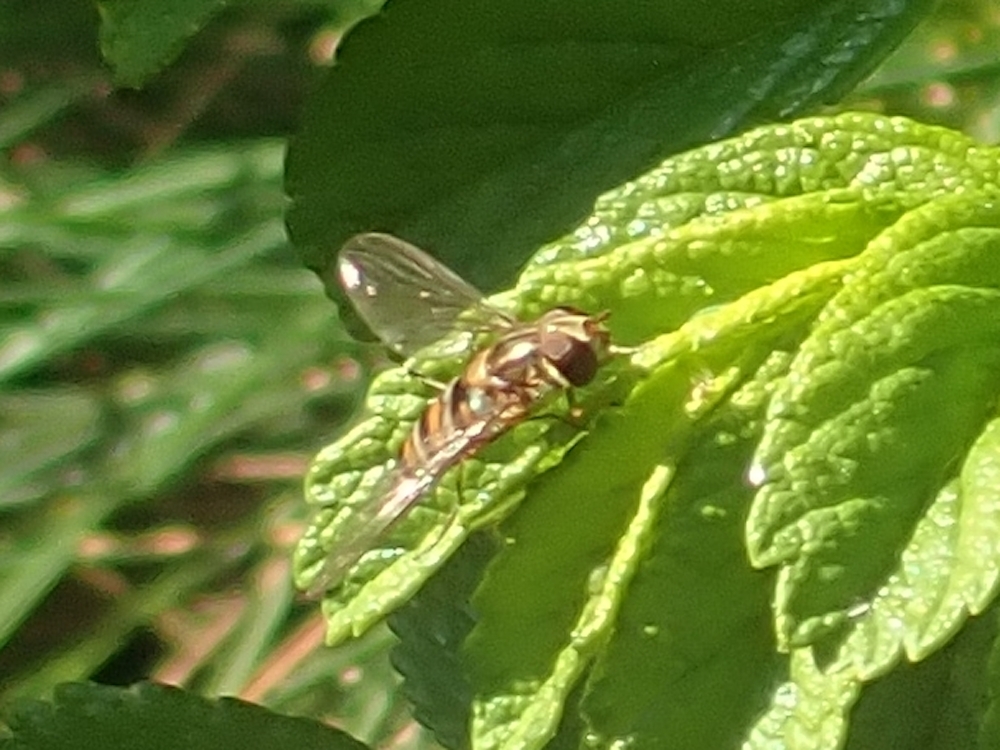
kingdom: Animalia
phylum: Arthropoda
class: Insecta
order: Diptera
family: Syrphidae
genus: Episyrphus
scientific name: Episyrphus balteatus
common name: Marmalade hoverfly
